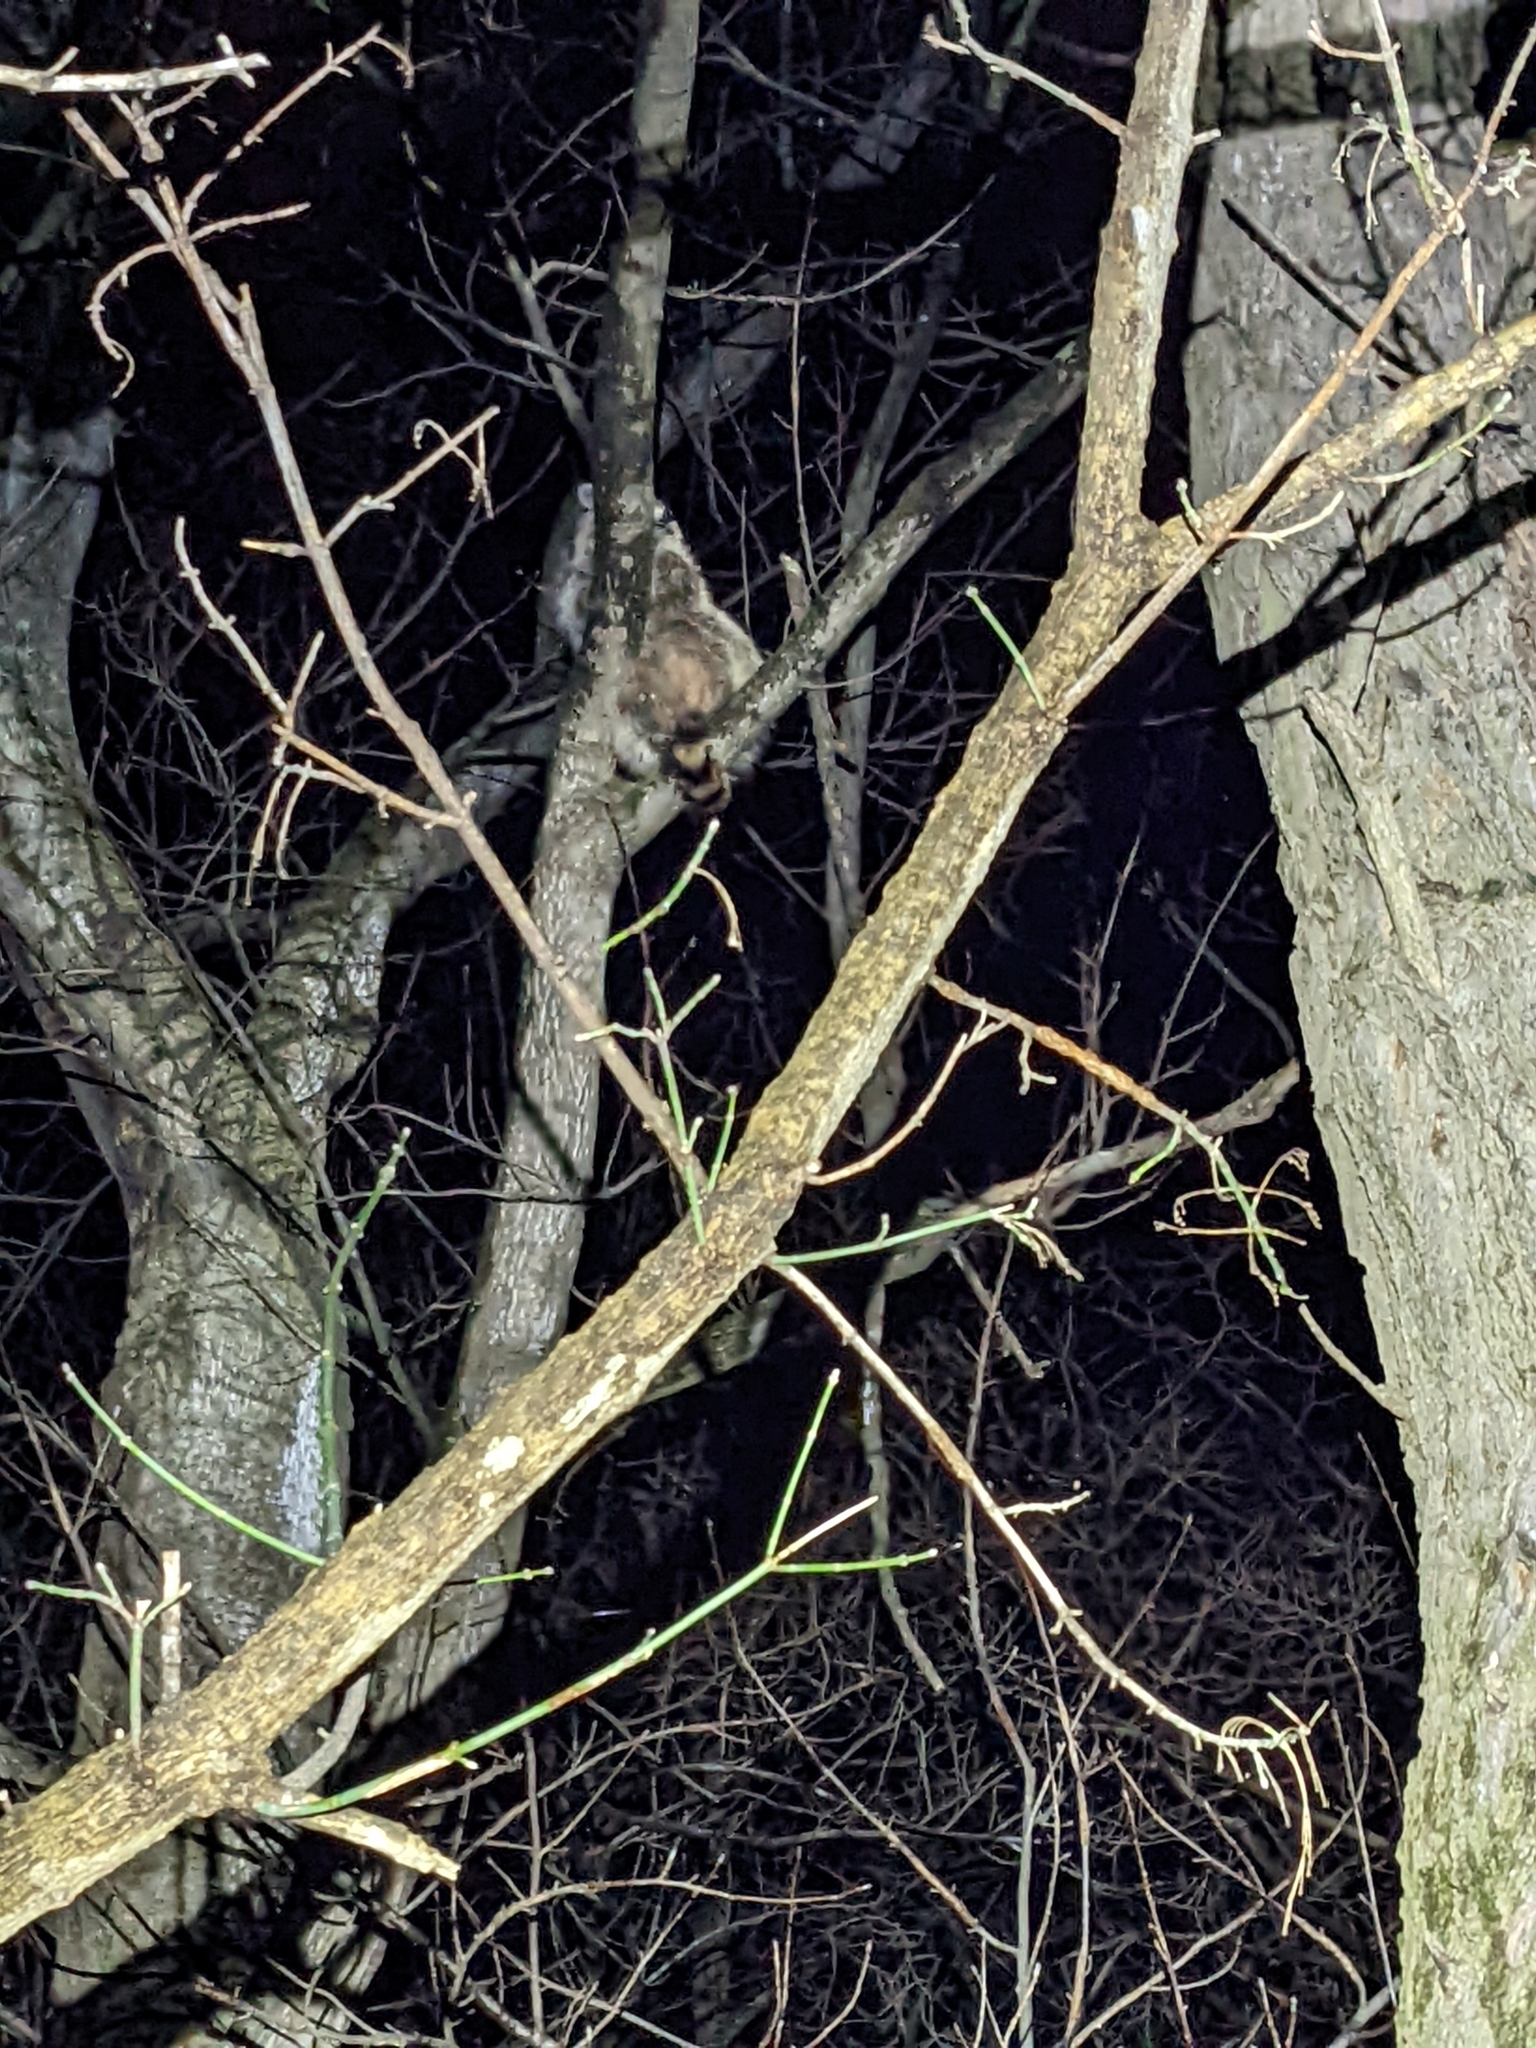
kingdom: Animalia
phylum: Chordata
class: Mammalia
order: Carnivora
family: Procyonidae
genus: Procyon
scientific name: Procyon lotor
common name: Raccoon
